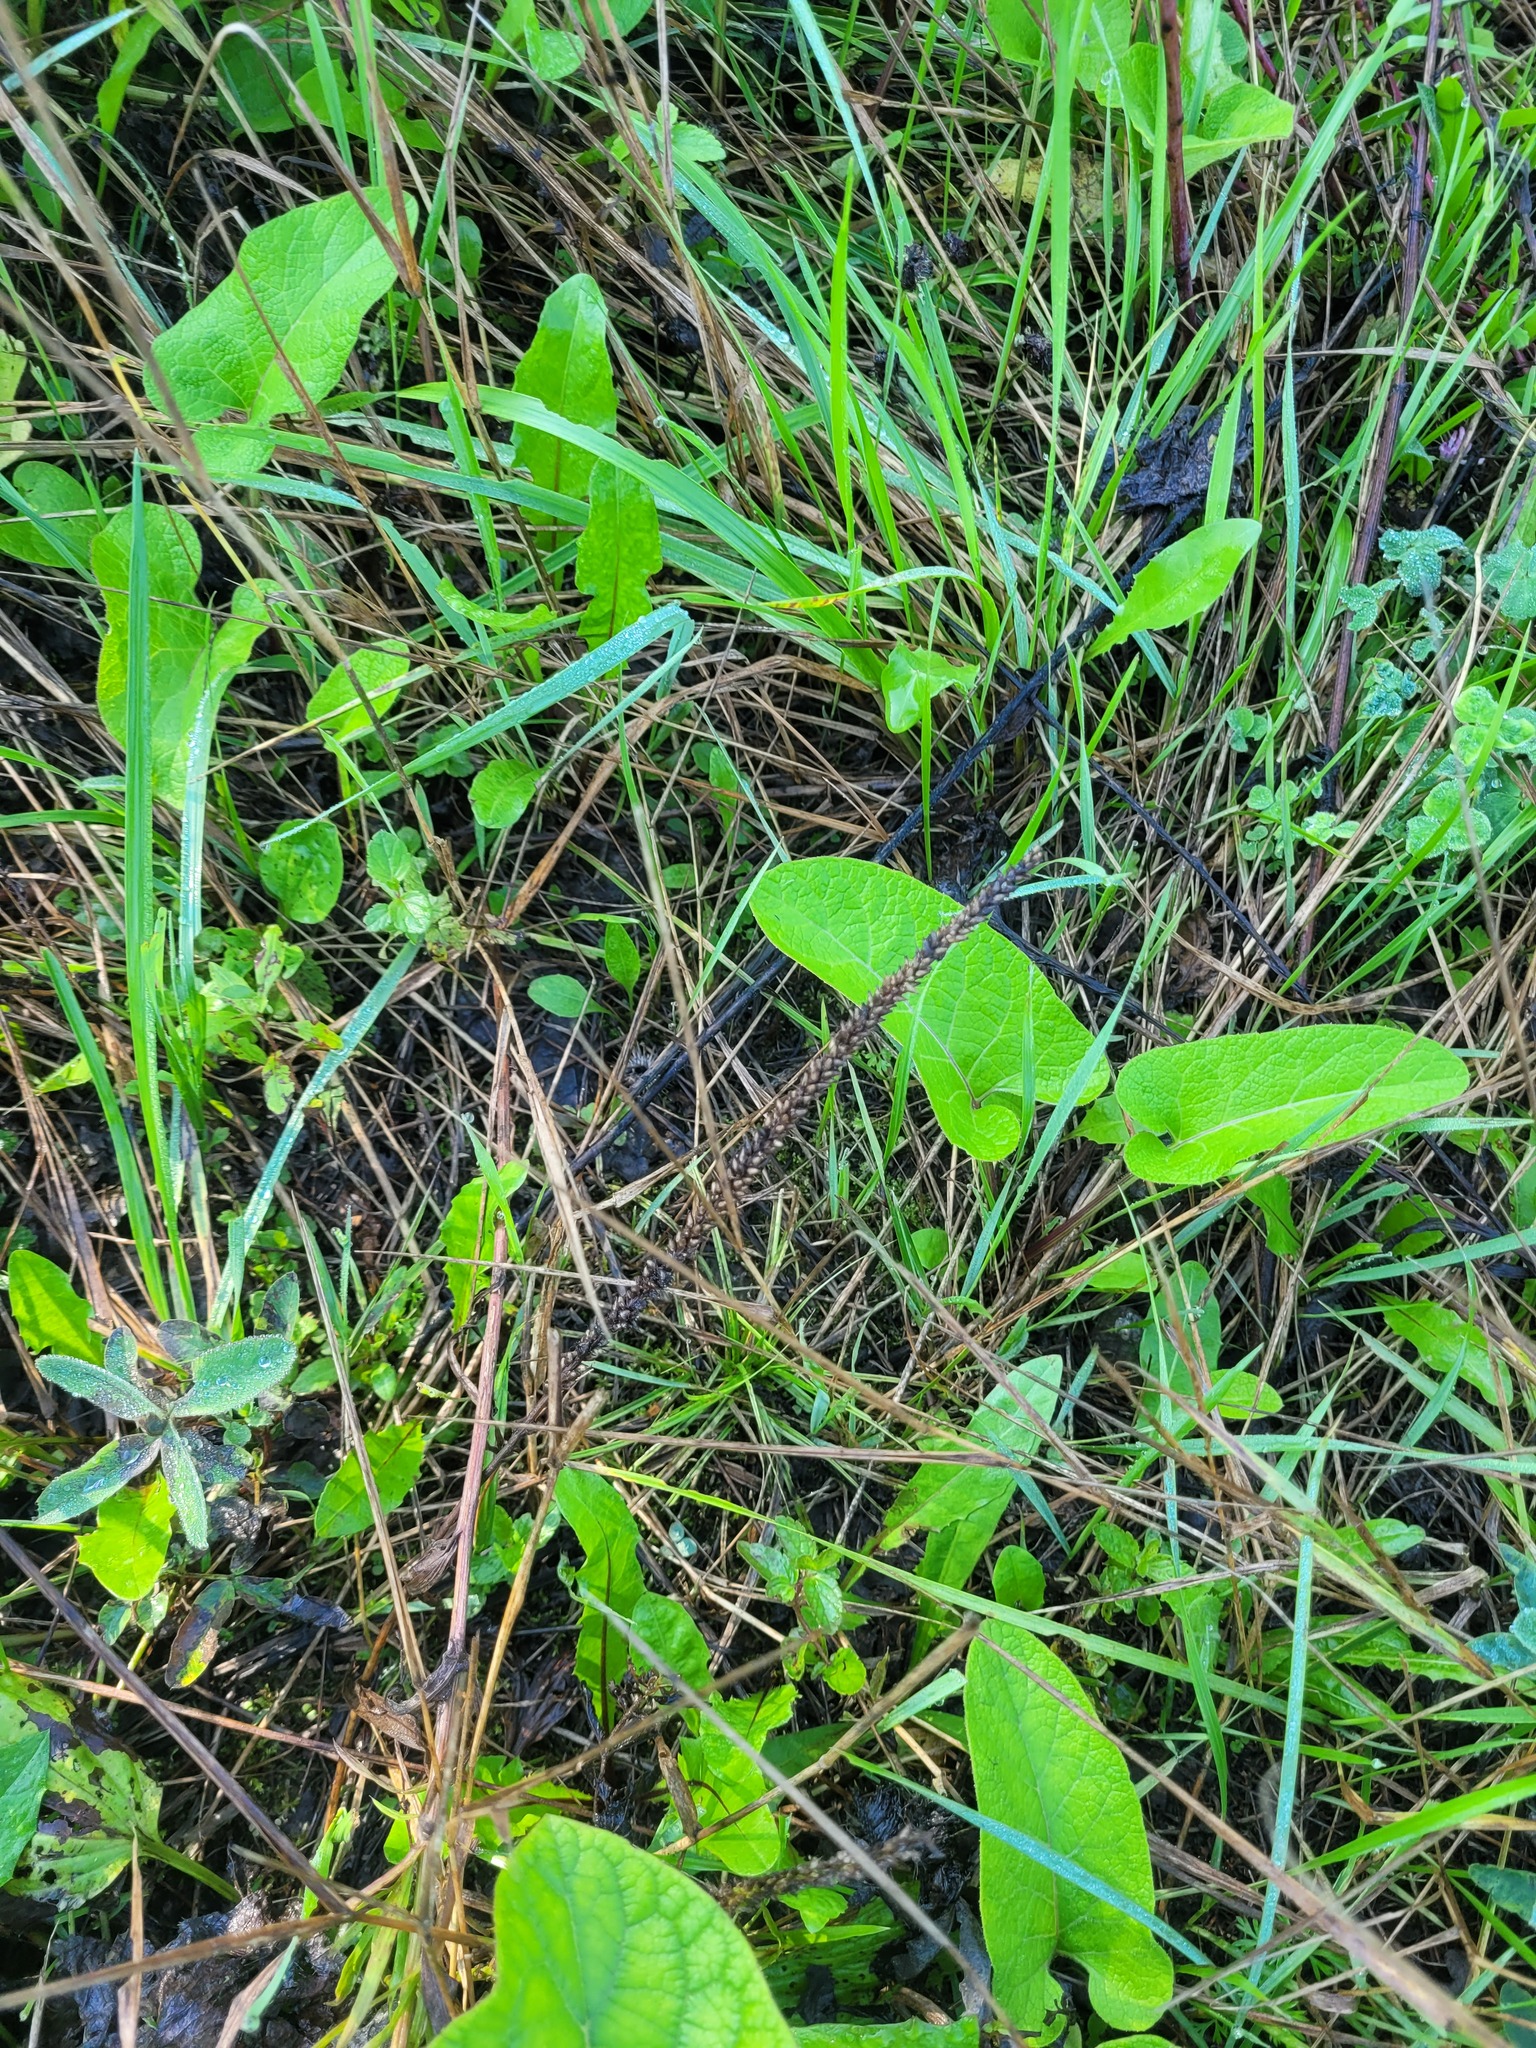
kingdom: Plantae
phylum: Tracheophyta
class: Magnoliopsida
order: Lamiales
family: Plantaginaceae
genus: Plantago
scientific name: Plantago major
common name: Common plantain
